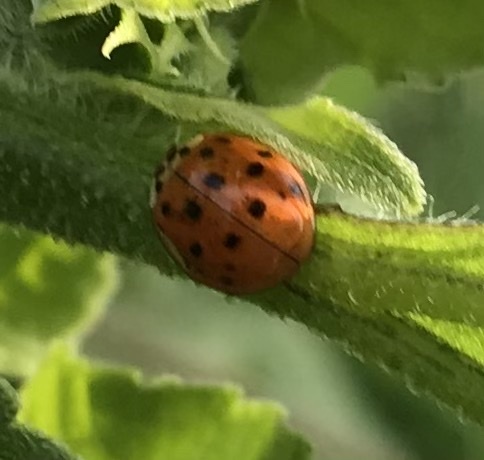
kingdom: Animalia
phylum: Arthropoda
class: Insecta
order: Coleoptera
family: Coccinellidae
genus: Harmonia
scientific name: Harmonia axyridis
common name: Harlequin ladybird
